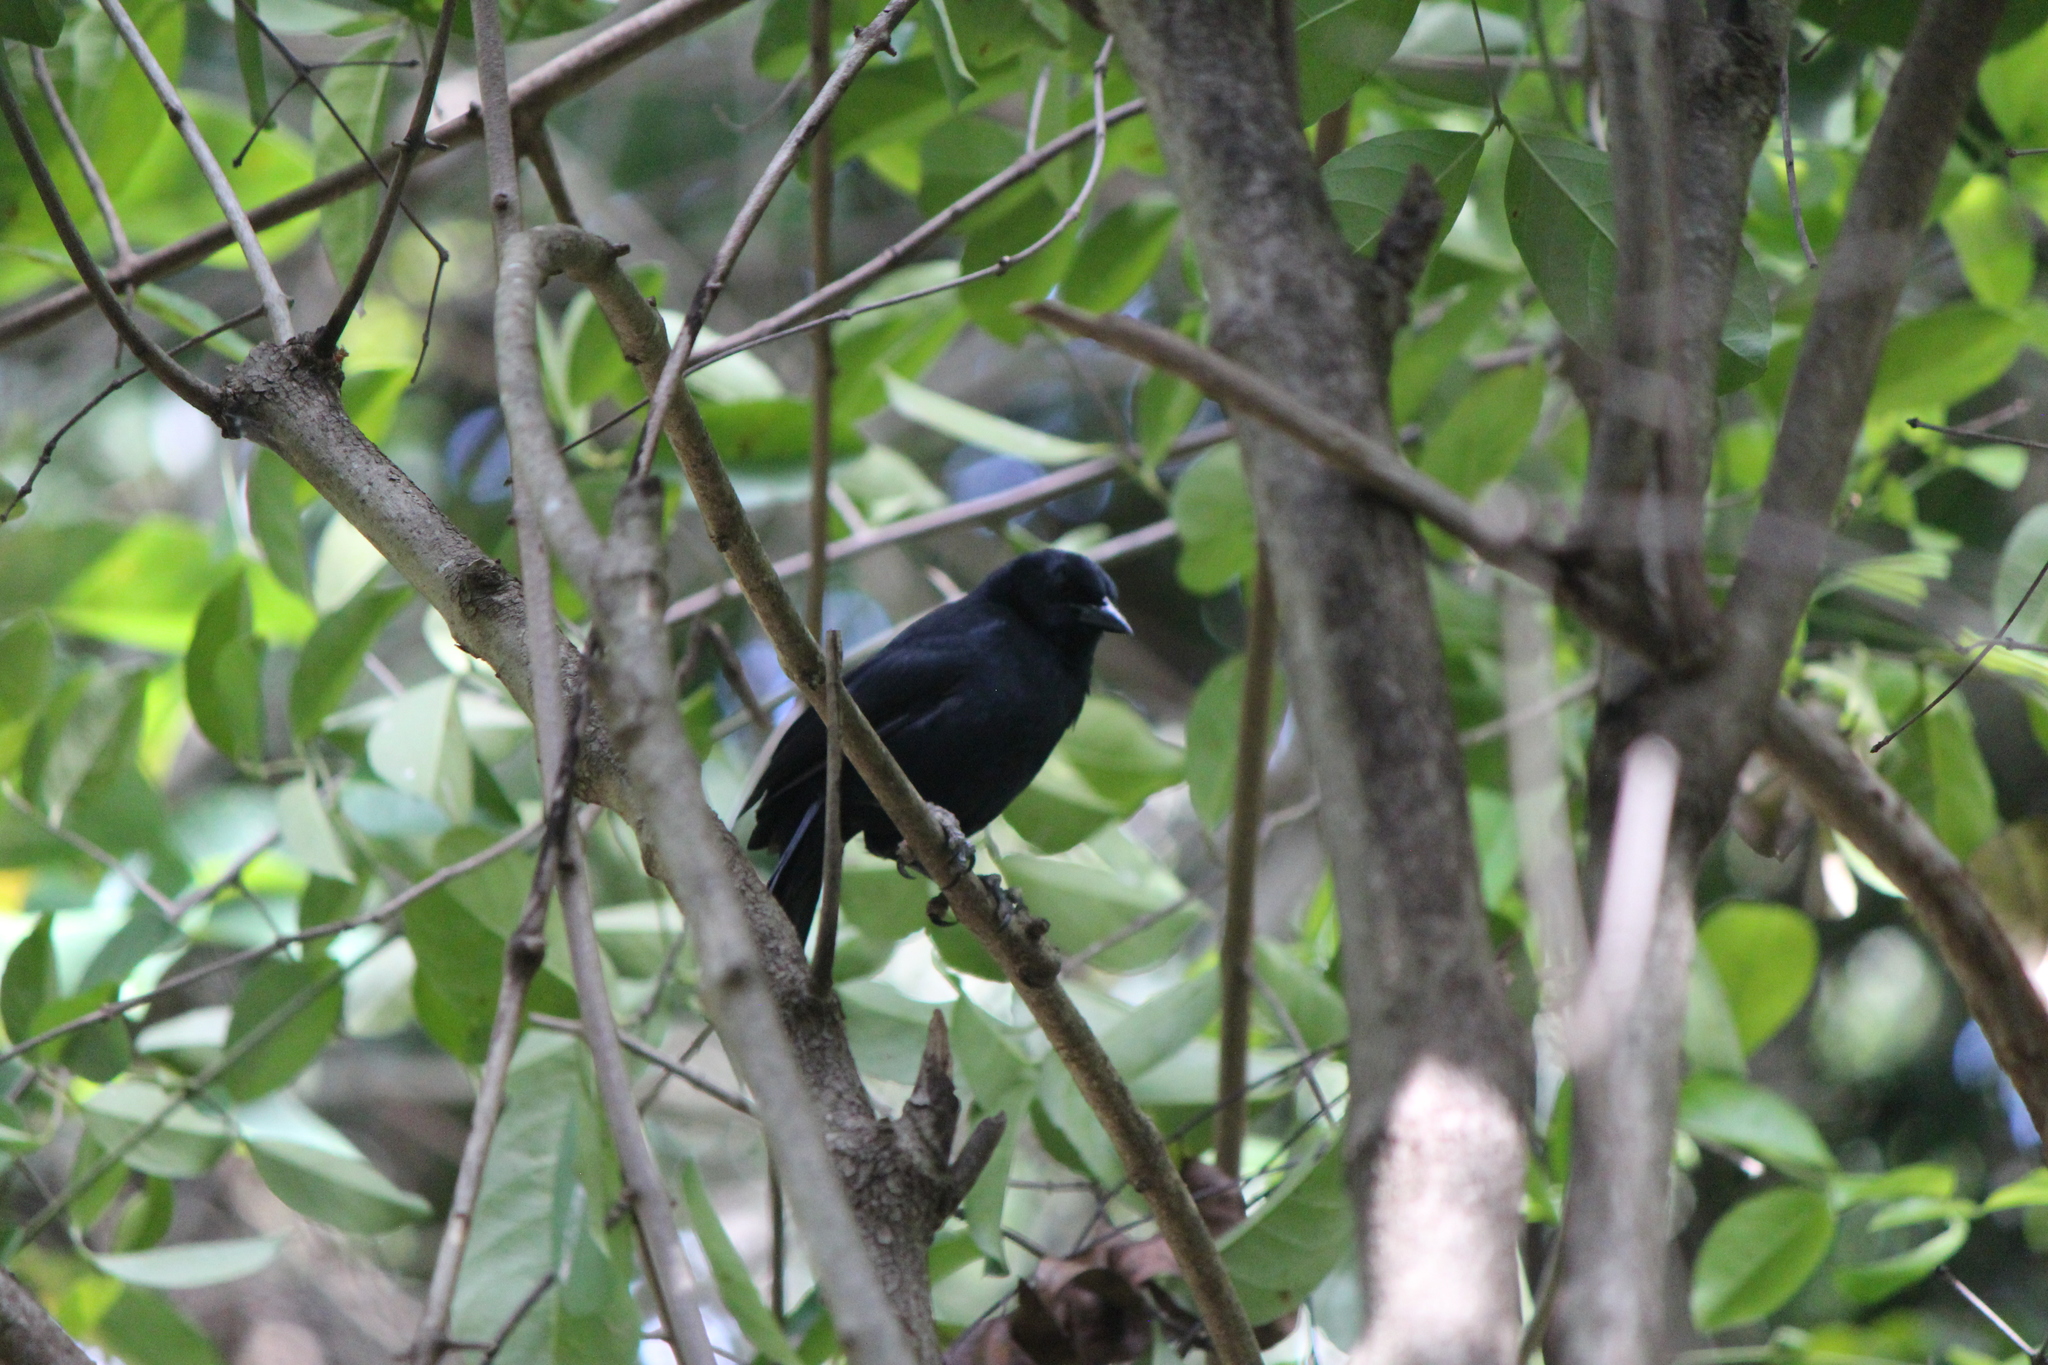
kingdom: Animalia
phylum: Chordata
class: Aves
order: Passeriformes
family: Icteridae
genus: Dives
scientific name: Dives dives
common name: Melodious blackbird
